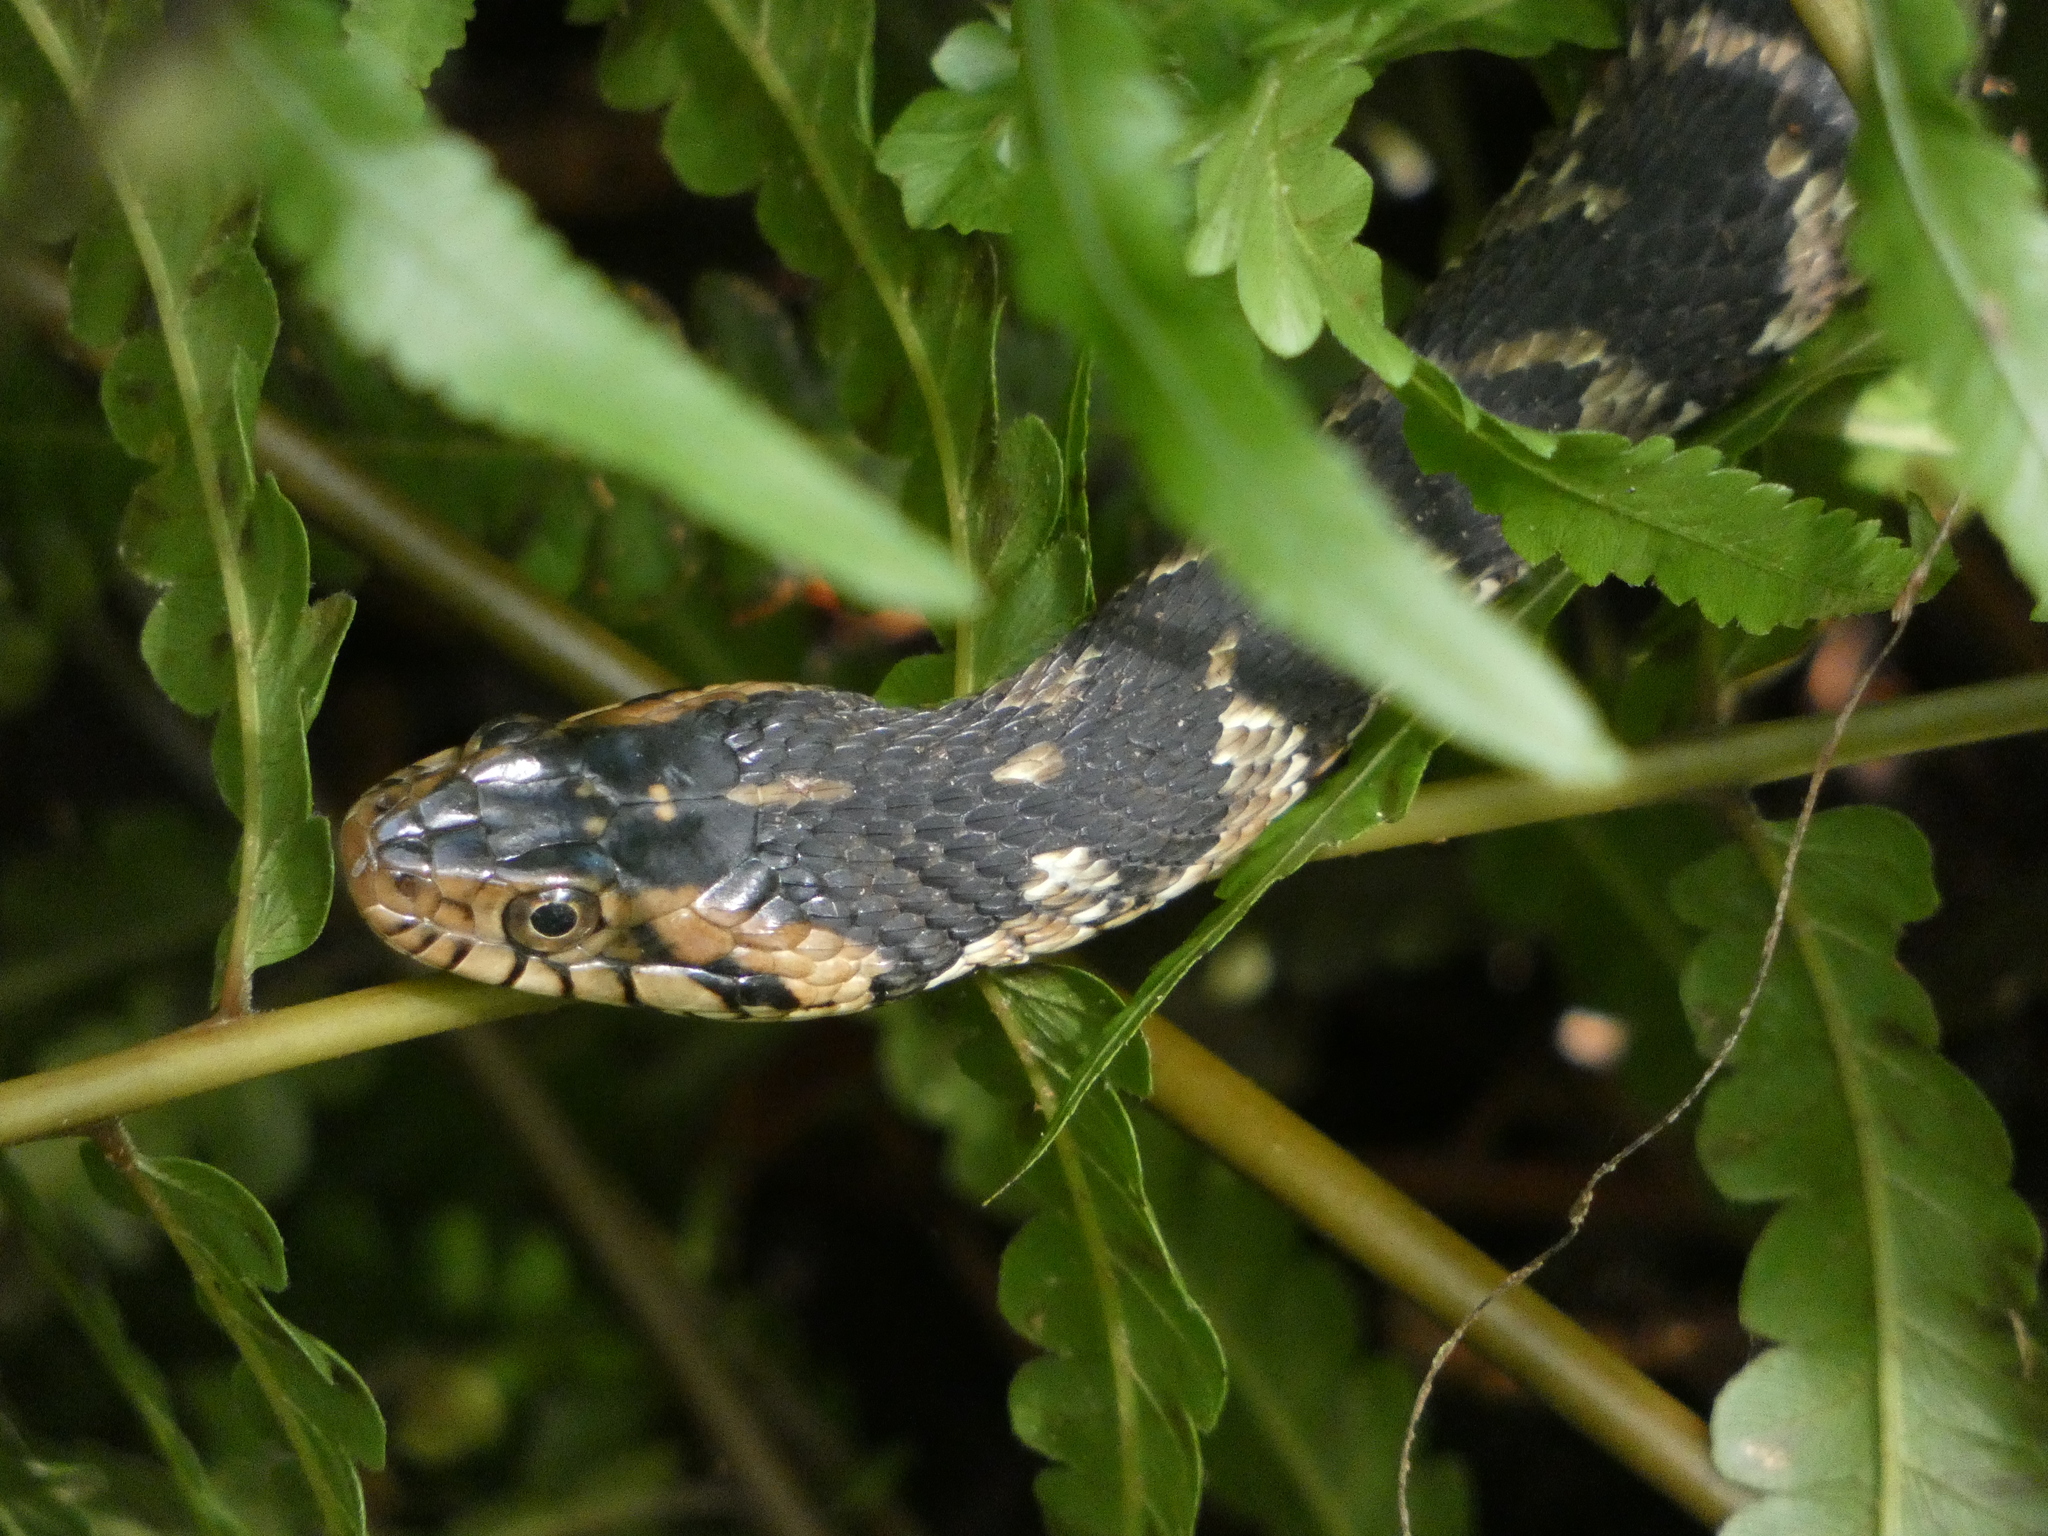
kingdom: Animalia
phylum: Chordata
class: Squamata
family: Colubridae
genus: Nerodia
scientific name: Nerodia fasciata
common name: Southern water snake
